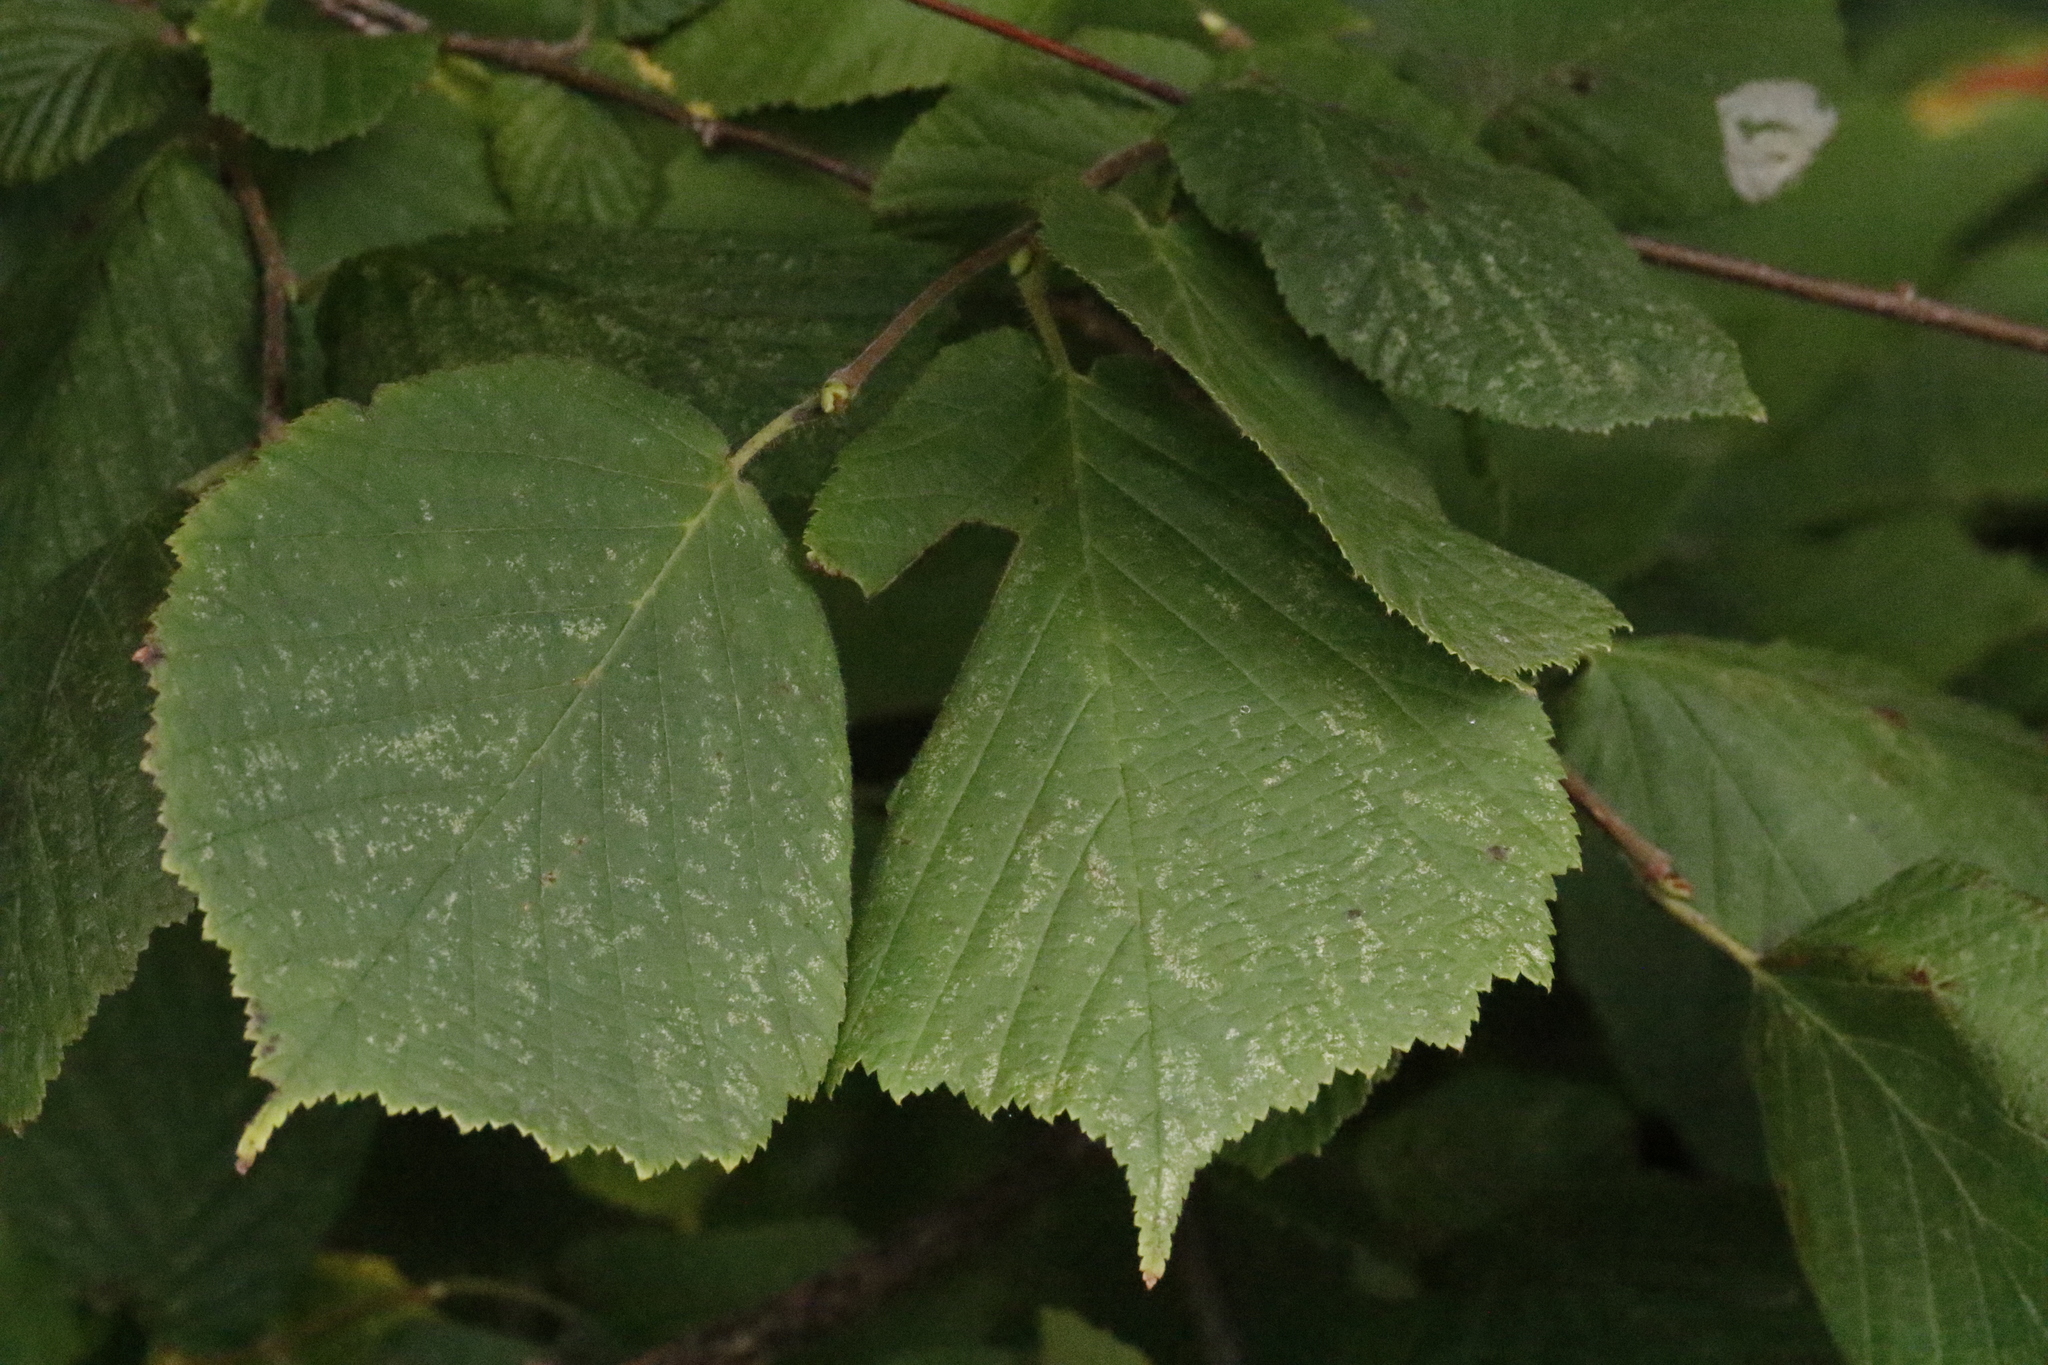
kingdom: Plantae
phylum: Tracheophyta
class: Magnoliopsida
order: Fagales
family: Betulaceae
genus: Corylus
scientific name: Corylus avellana
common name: European hazel
